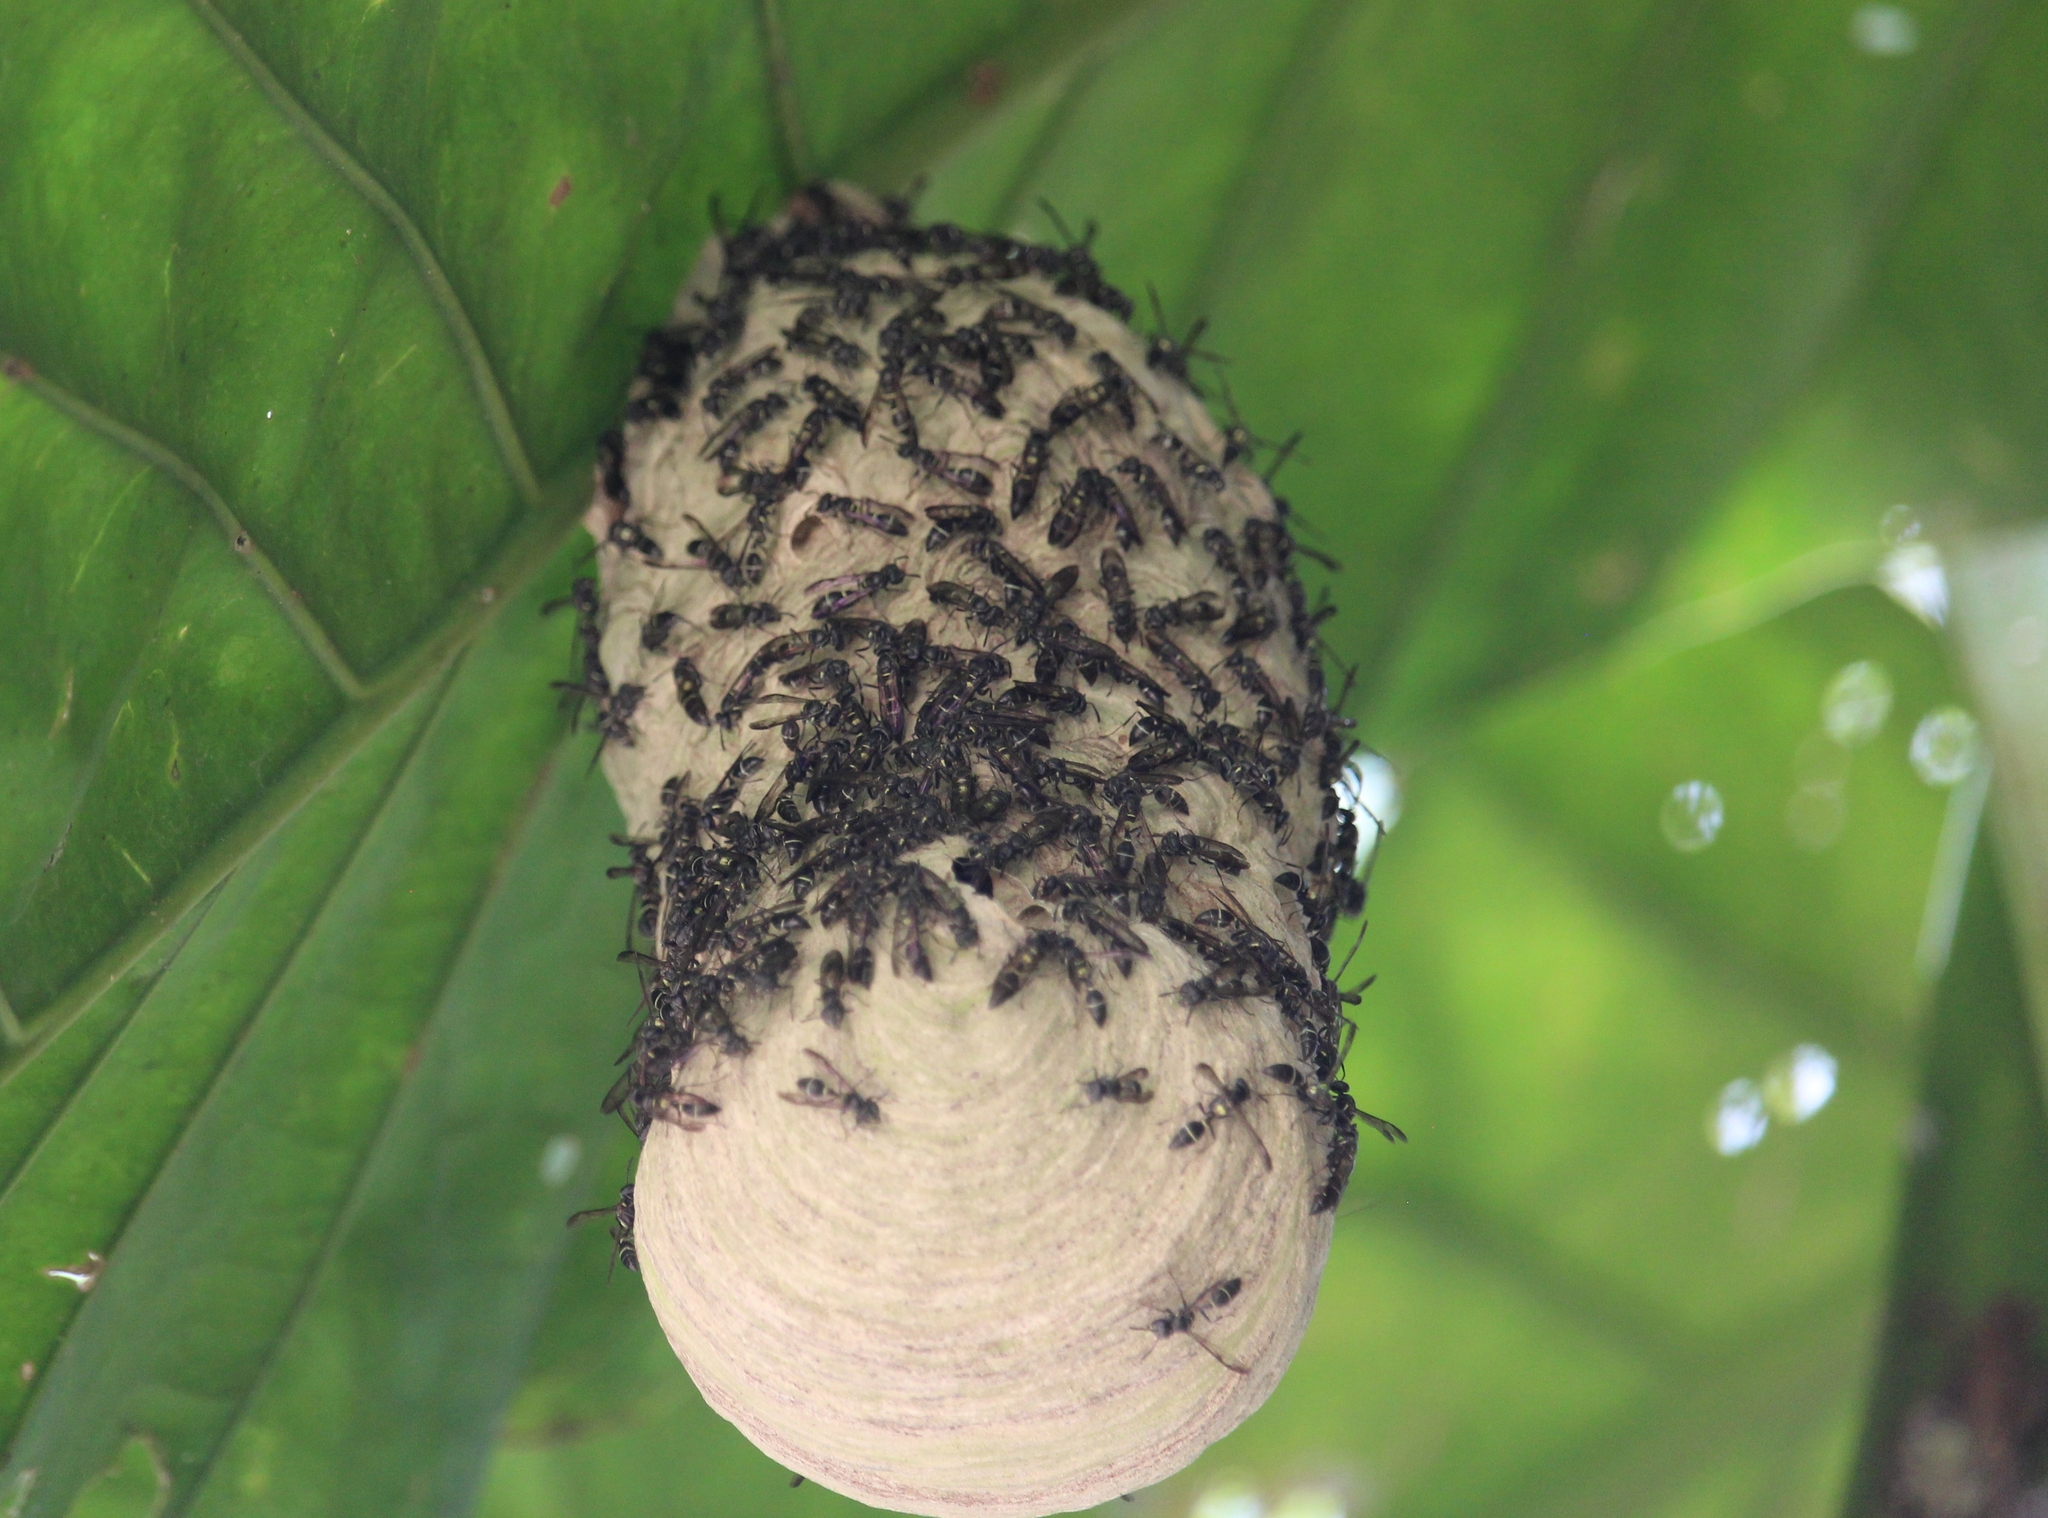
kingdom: Animalia
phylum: Arthropoda
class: Insecta
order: Hymenoptera
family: Eumenidae
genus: Polybia
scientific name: Polybia plebeja
